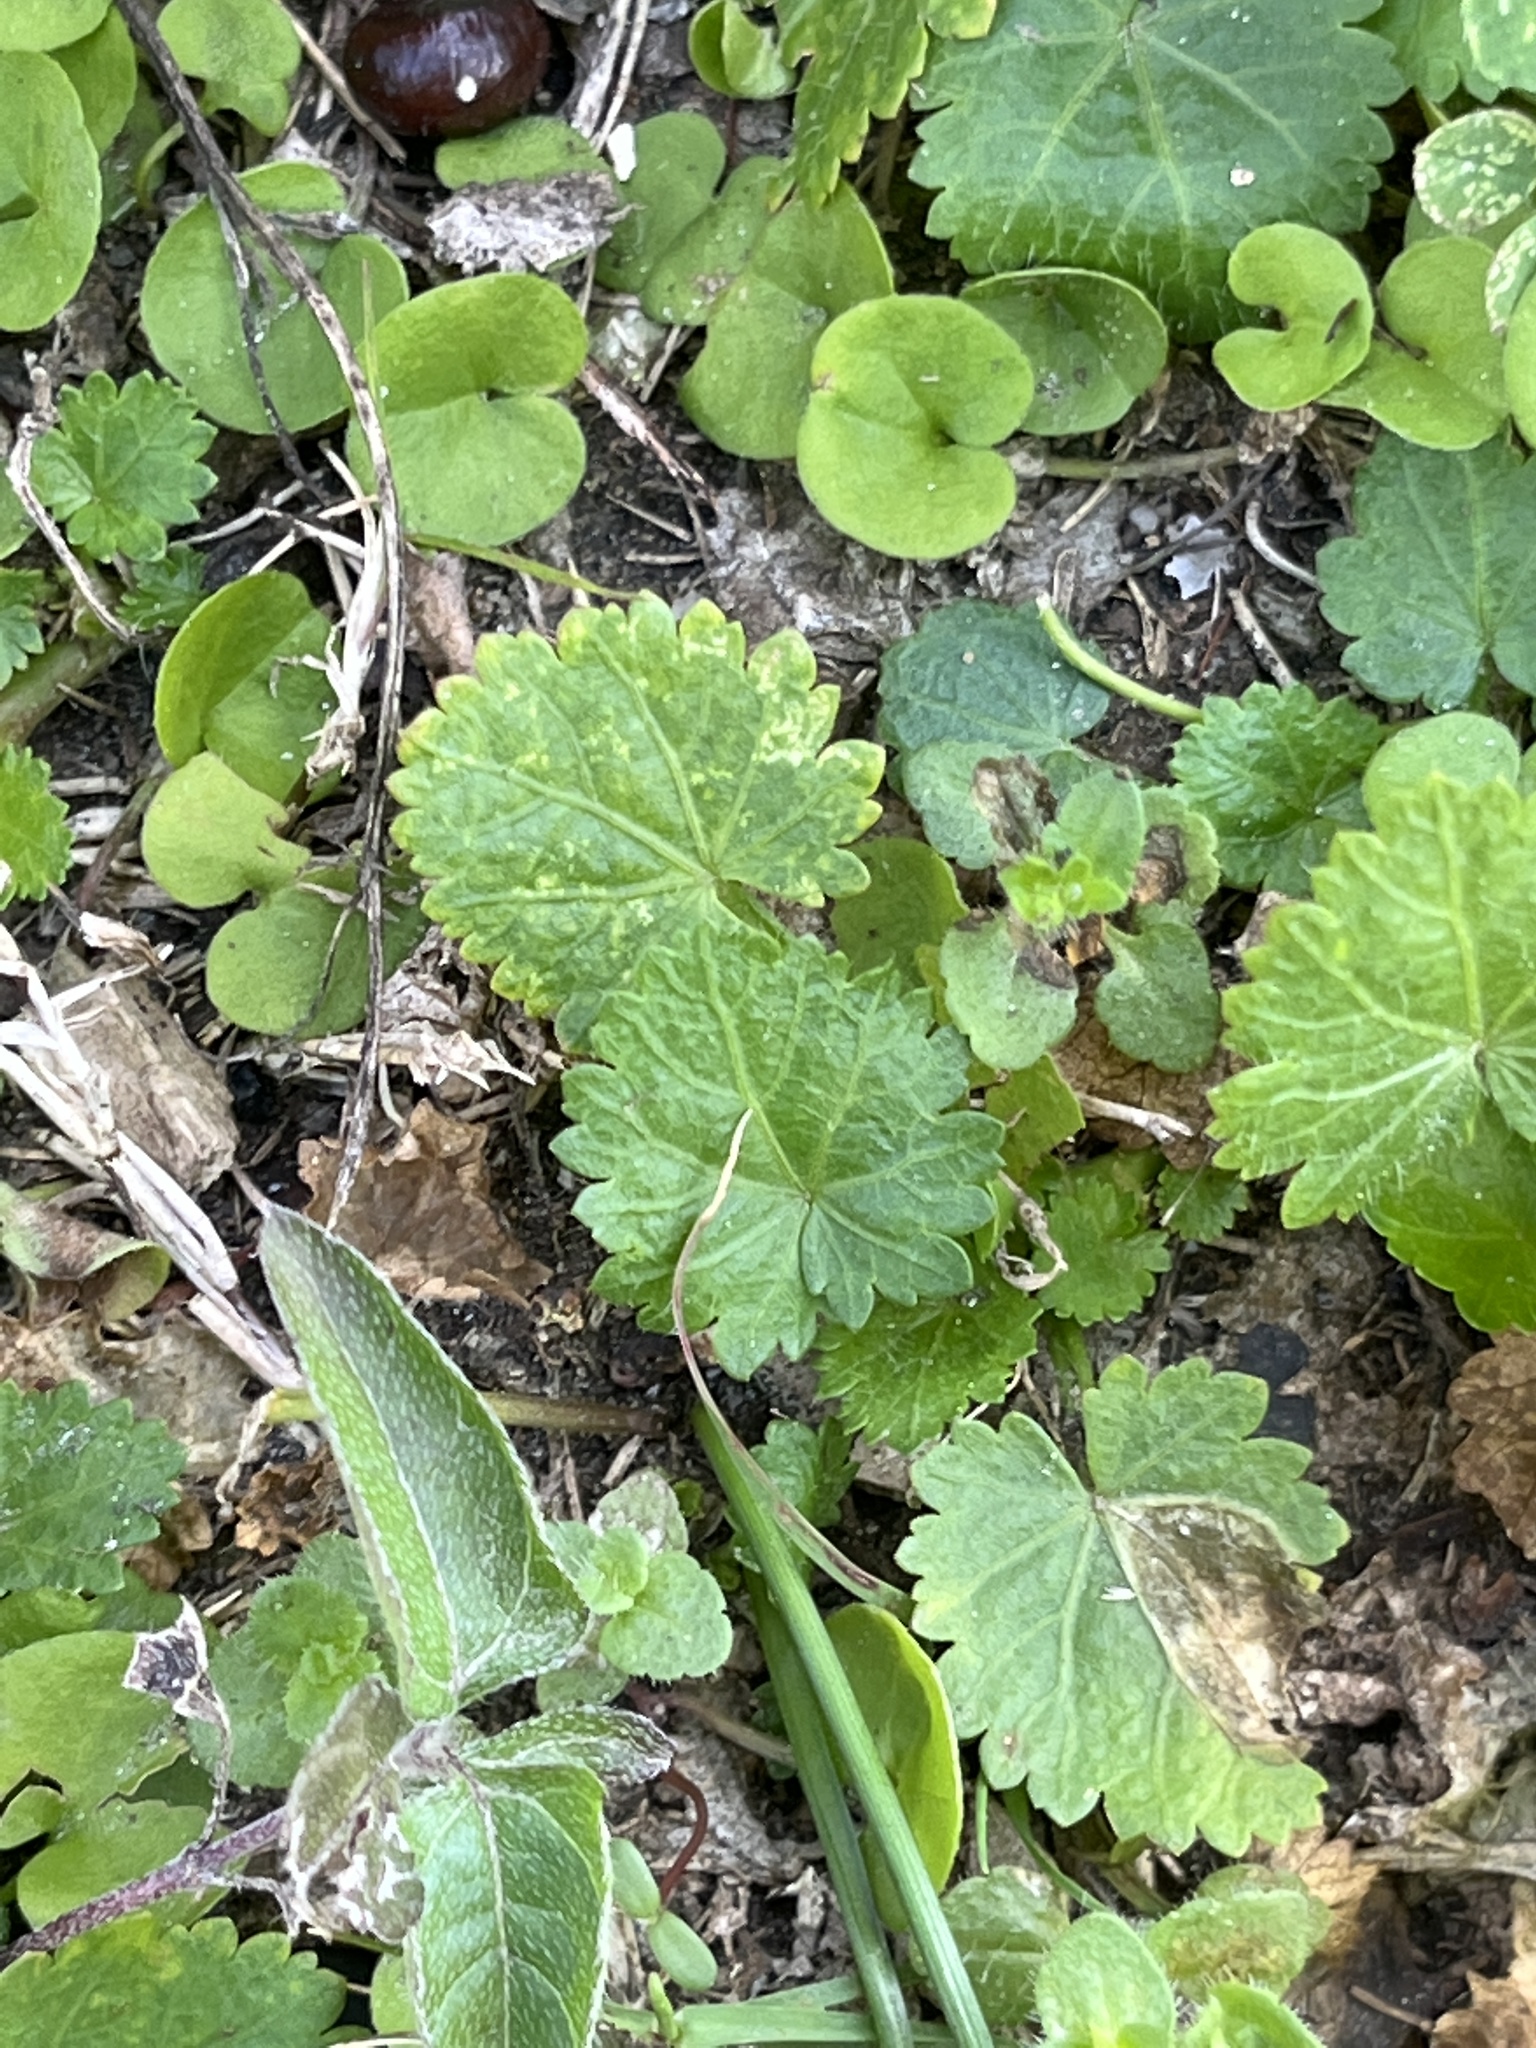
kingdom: Plantae
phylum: Tracheophyta
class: Magnoliopsida
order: Malvales
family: Malvaceae
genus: Modiola
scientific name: Modiola caroliniana
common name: Carolina bristlemallow
